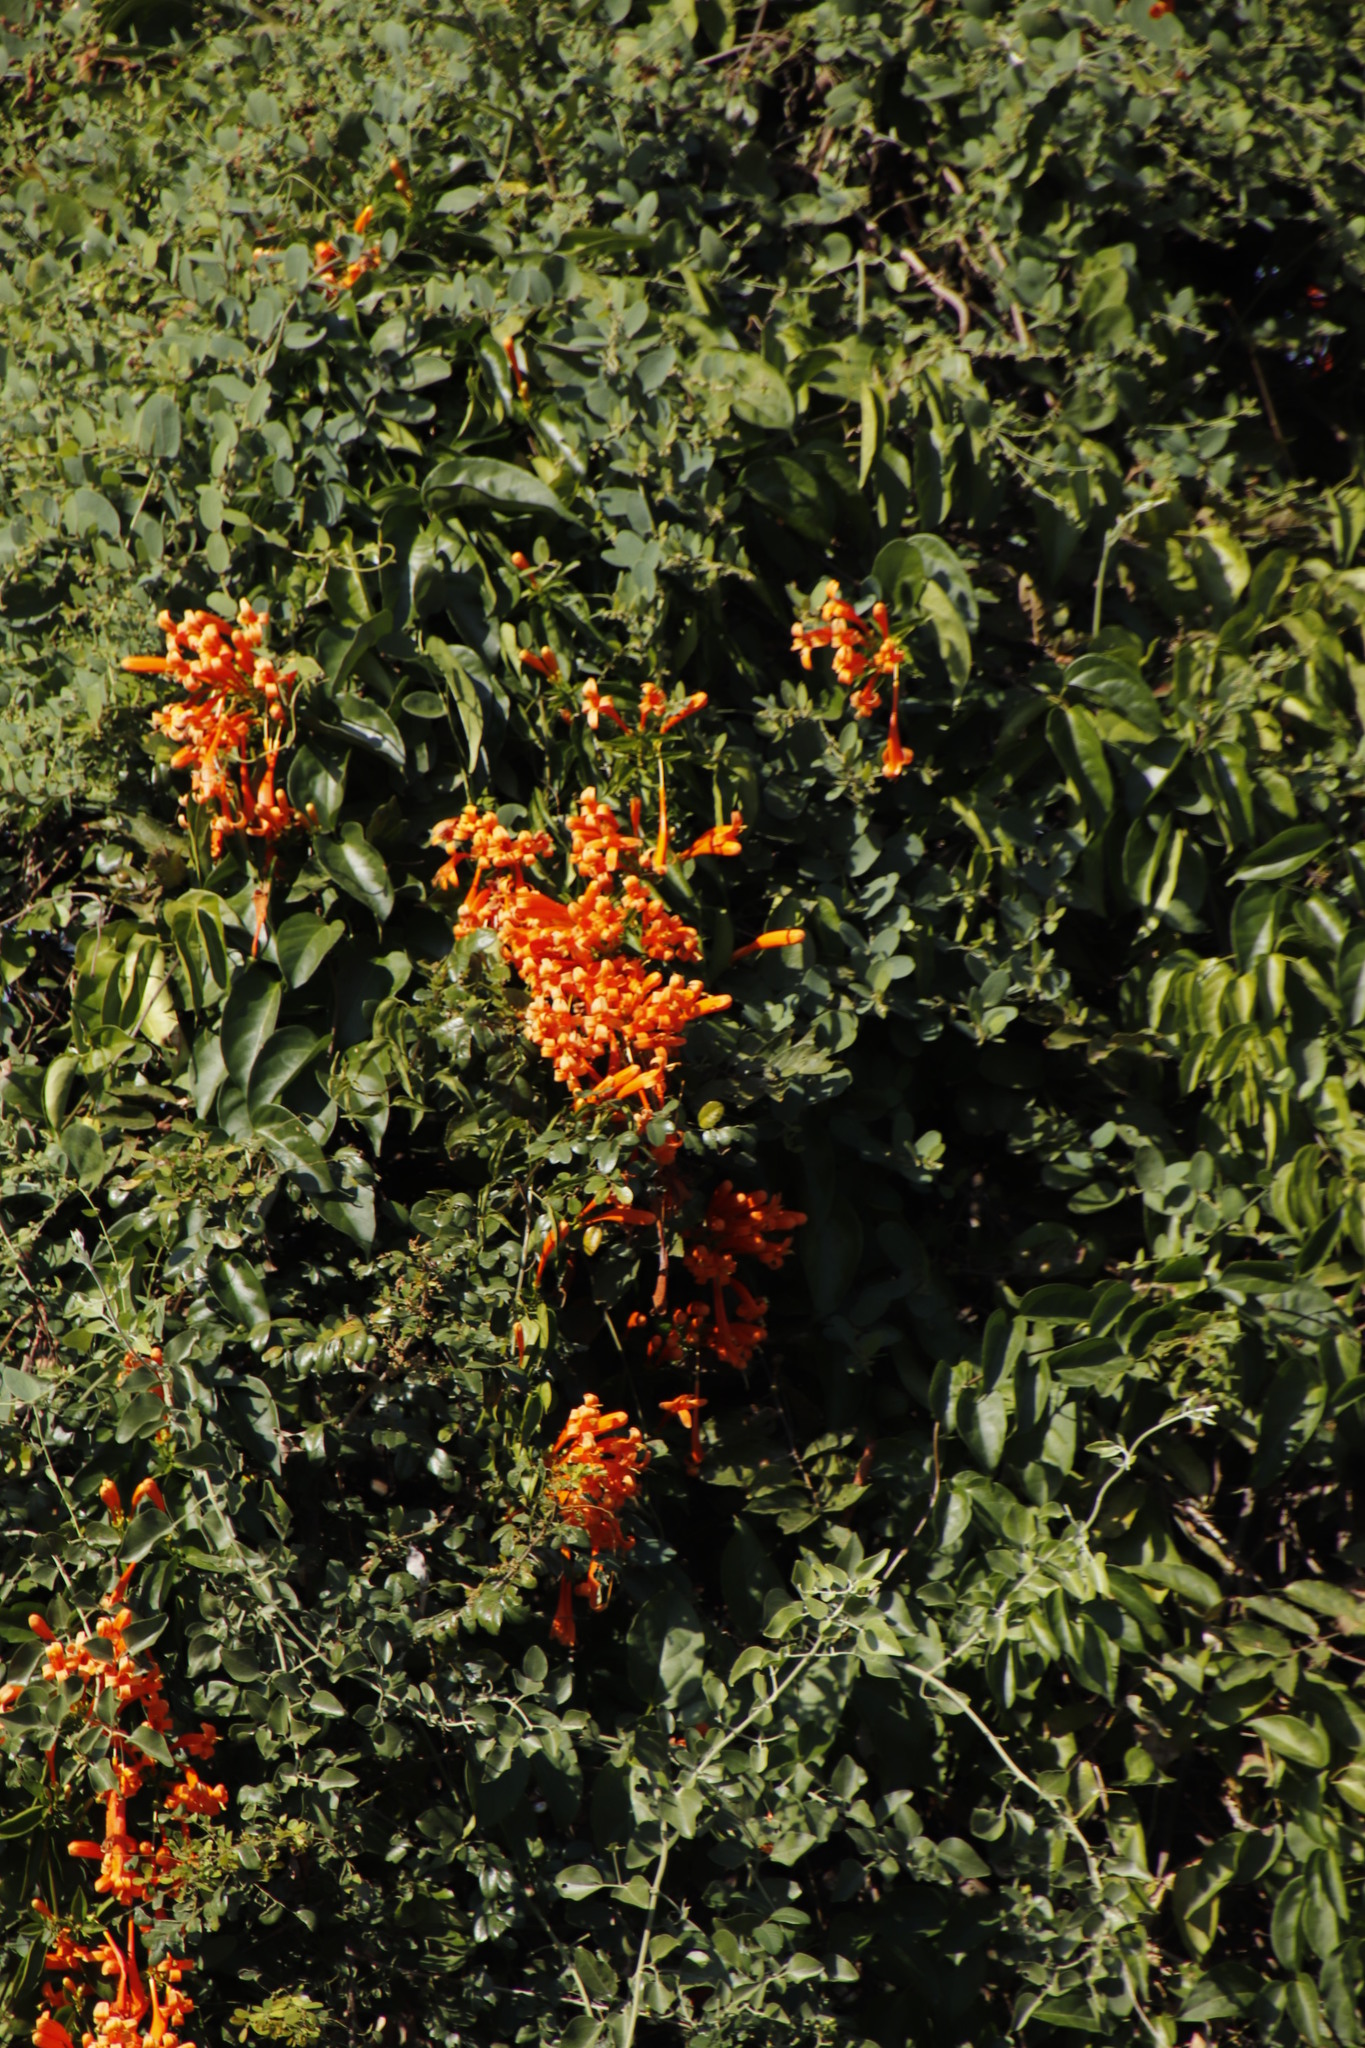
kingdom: Plantae
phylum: Tracheophyta
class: Magnoliopsida
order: Lamiales
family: Bignoniaceae
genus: Pyrostegia
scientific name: Pyrostegia venusta
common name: Flamevine
